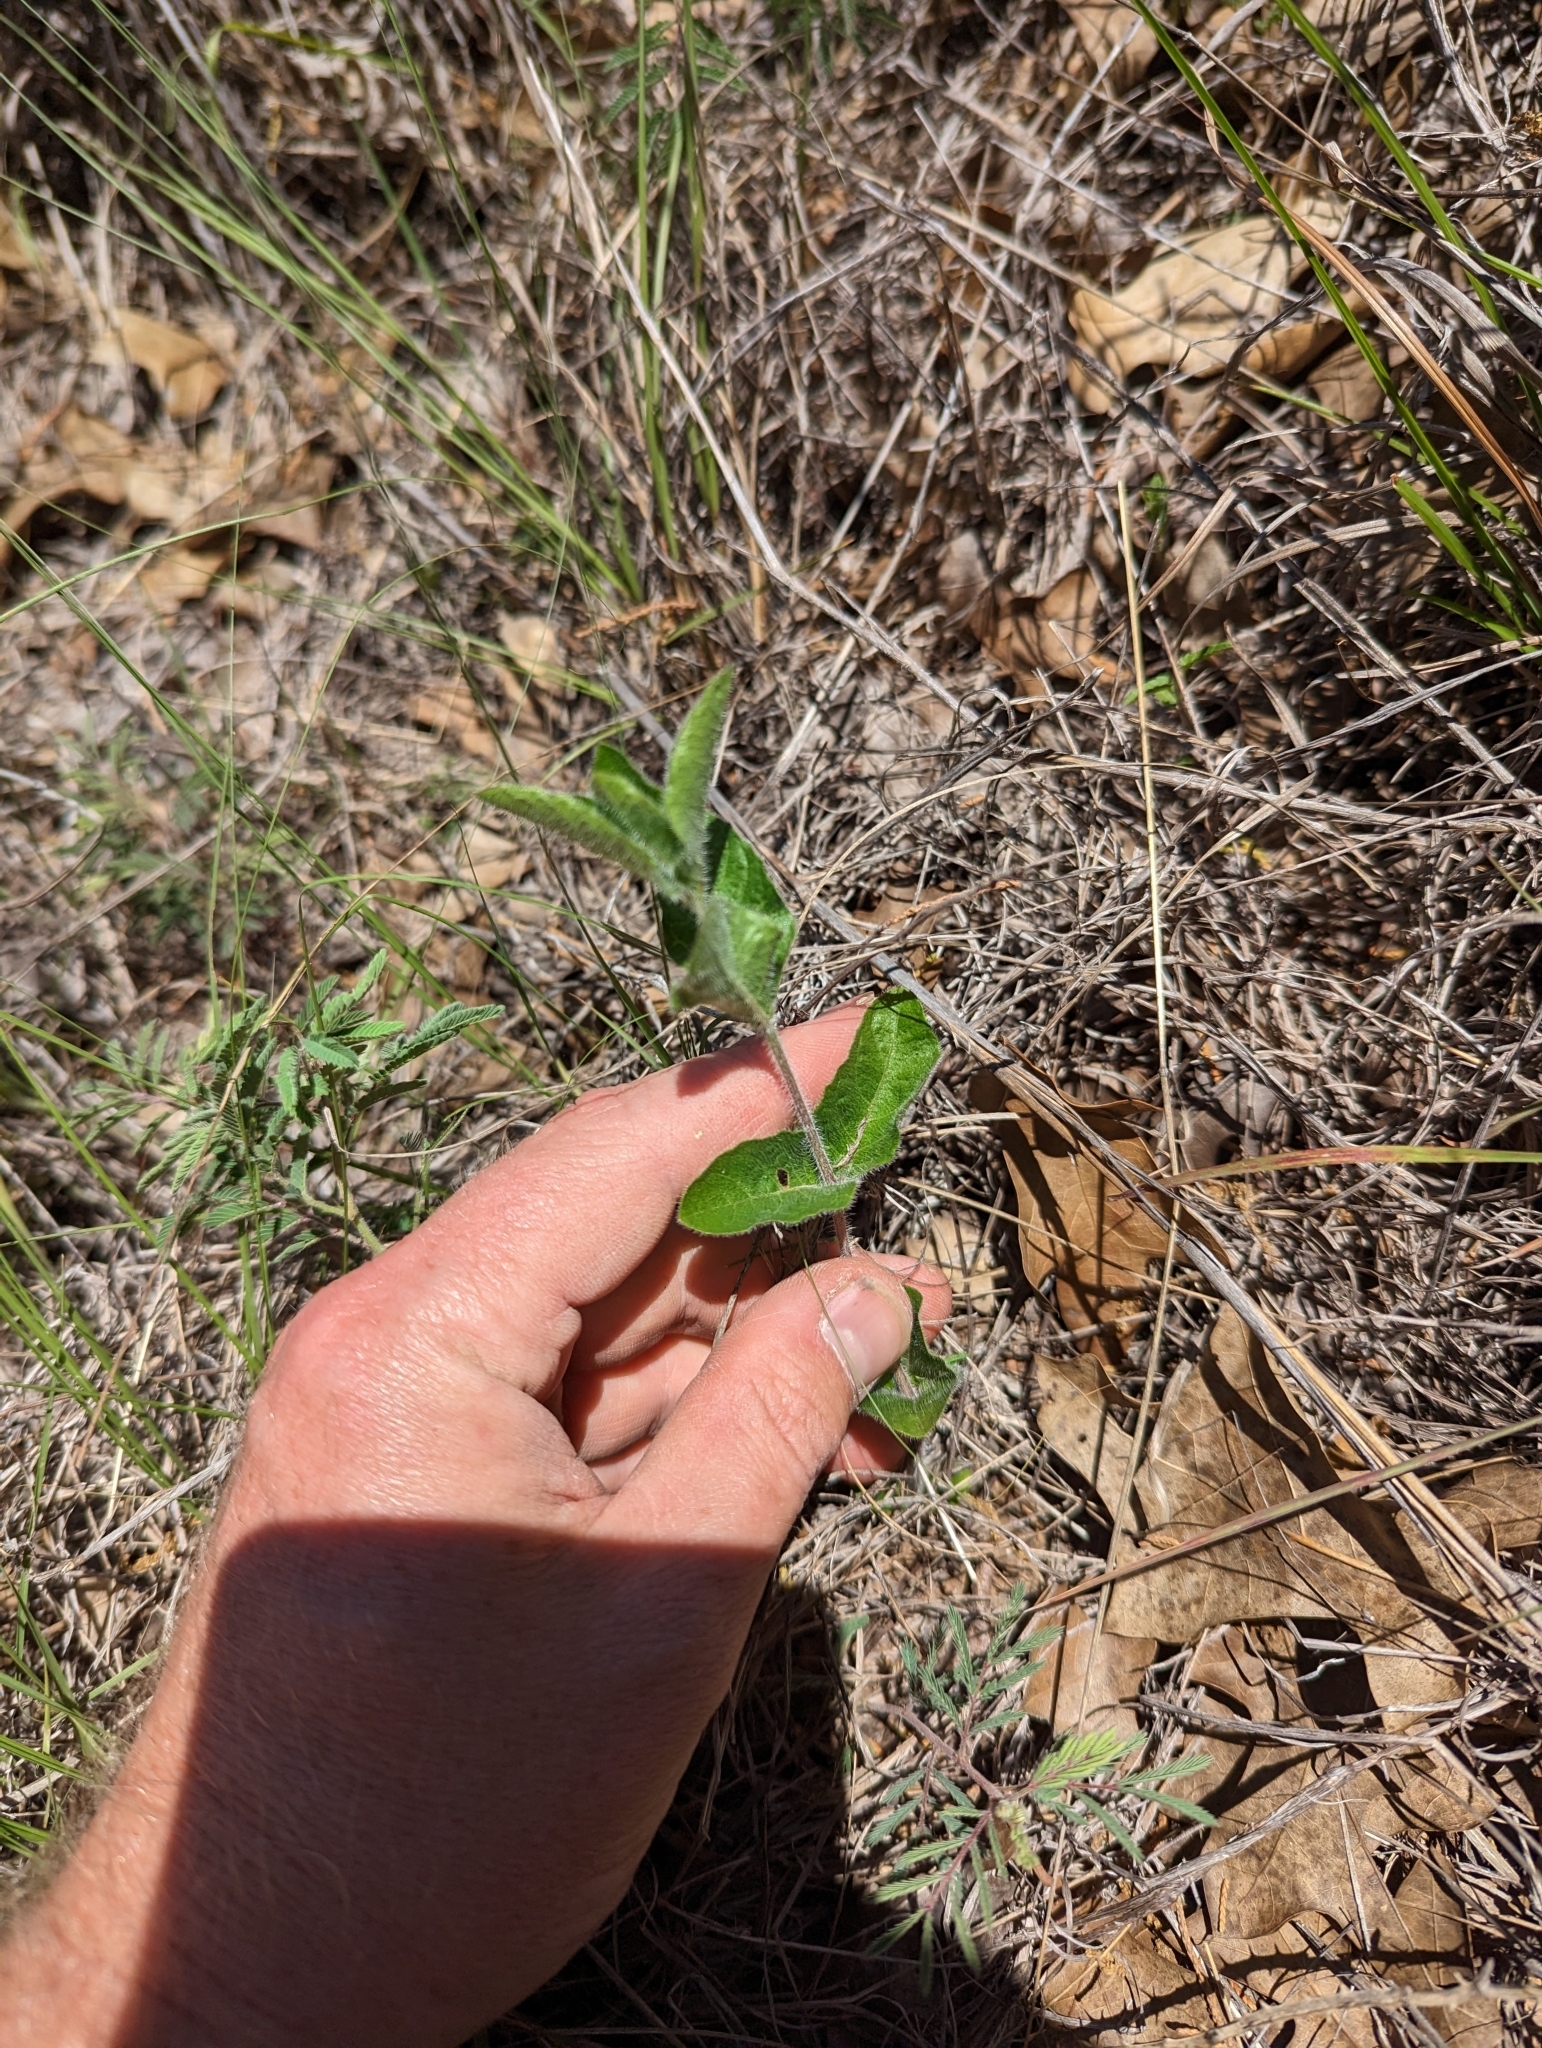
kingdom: Plantae
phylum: Tracheophyta
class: Magnoliopsida
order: Lamiales
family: Acanthaceae
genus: Ruellia
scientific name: Ruellia humilis
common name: Fringe-leaf ruellia
